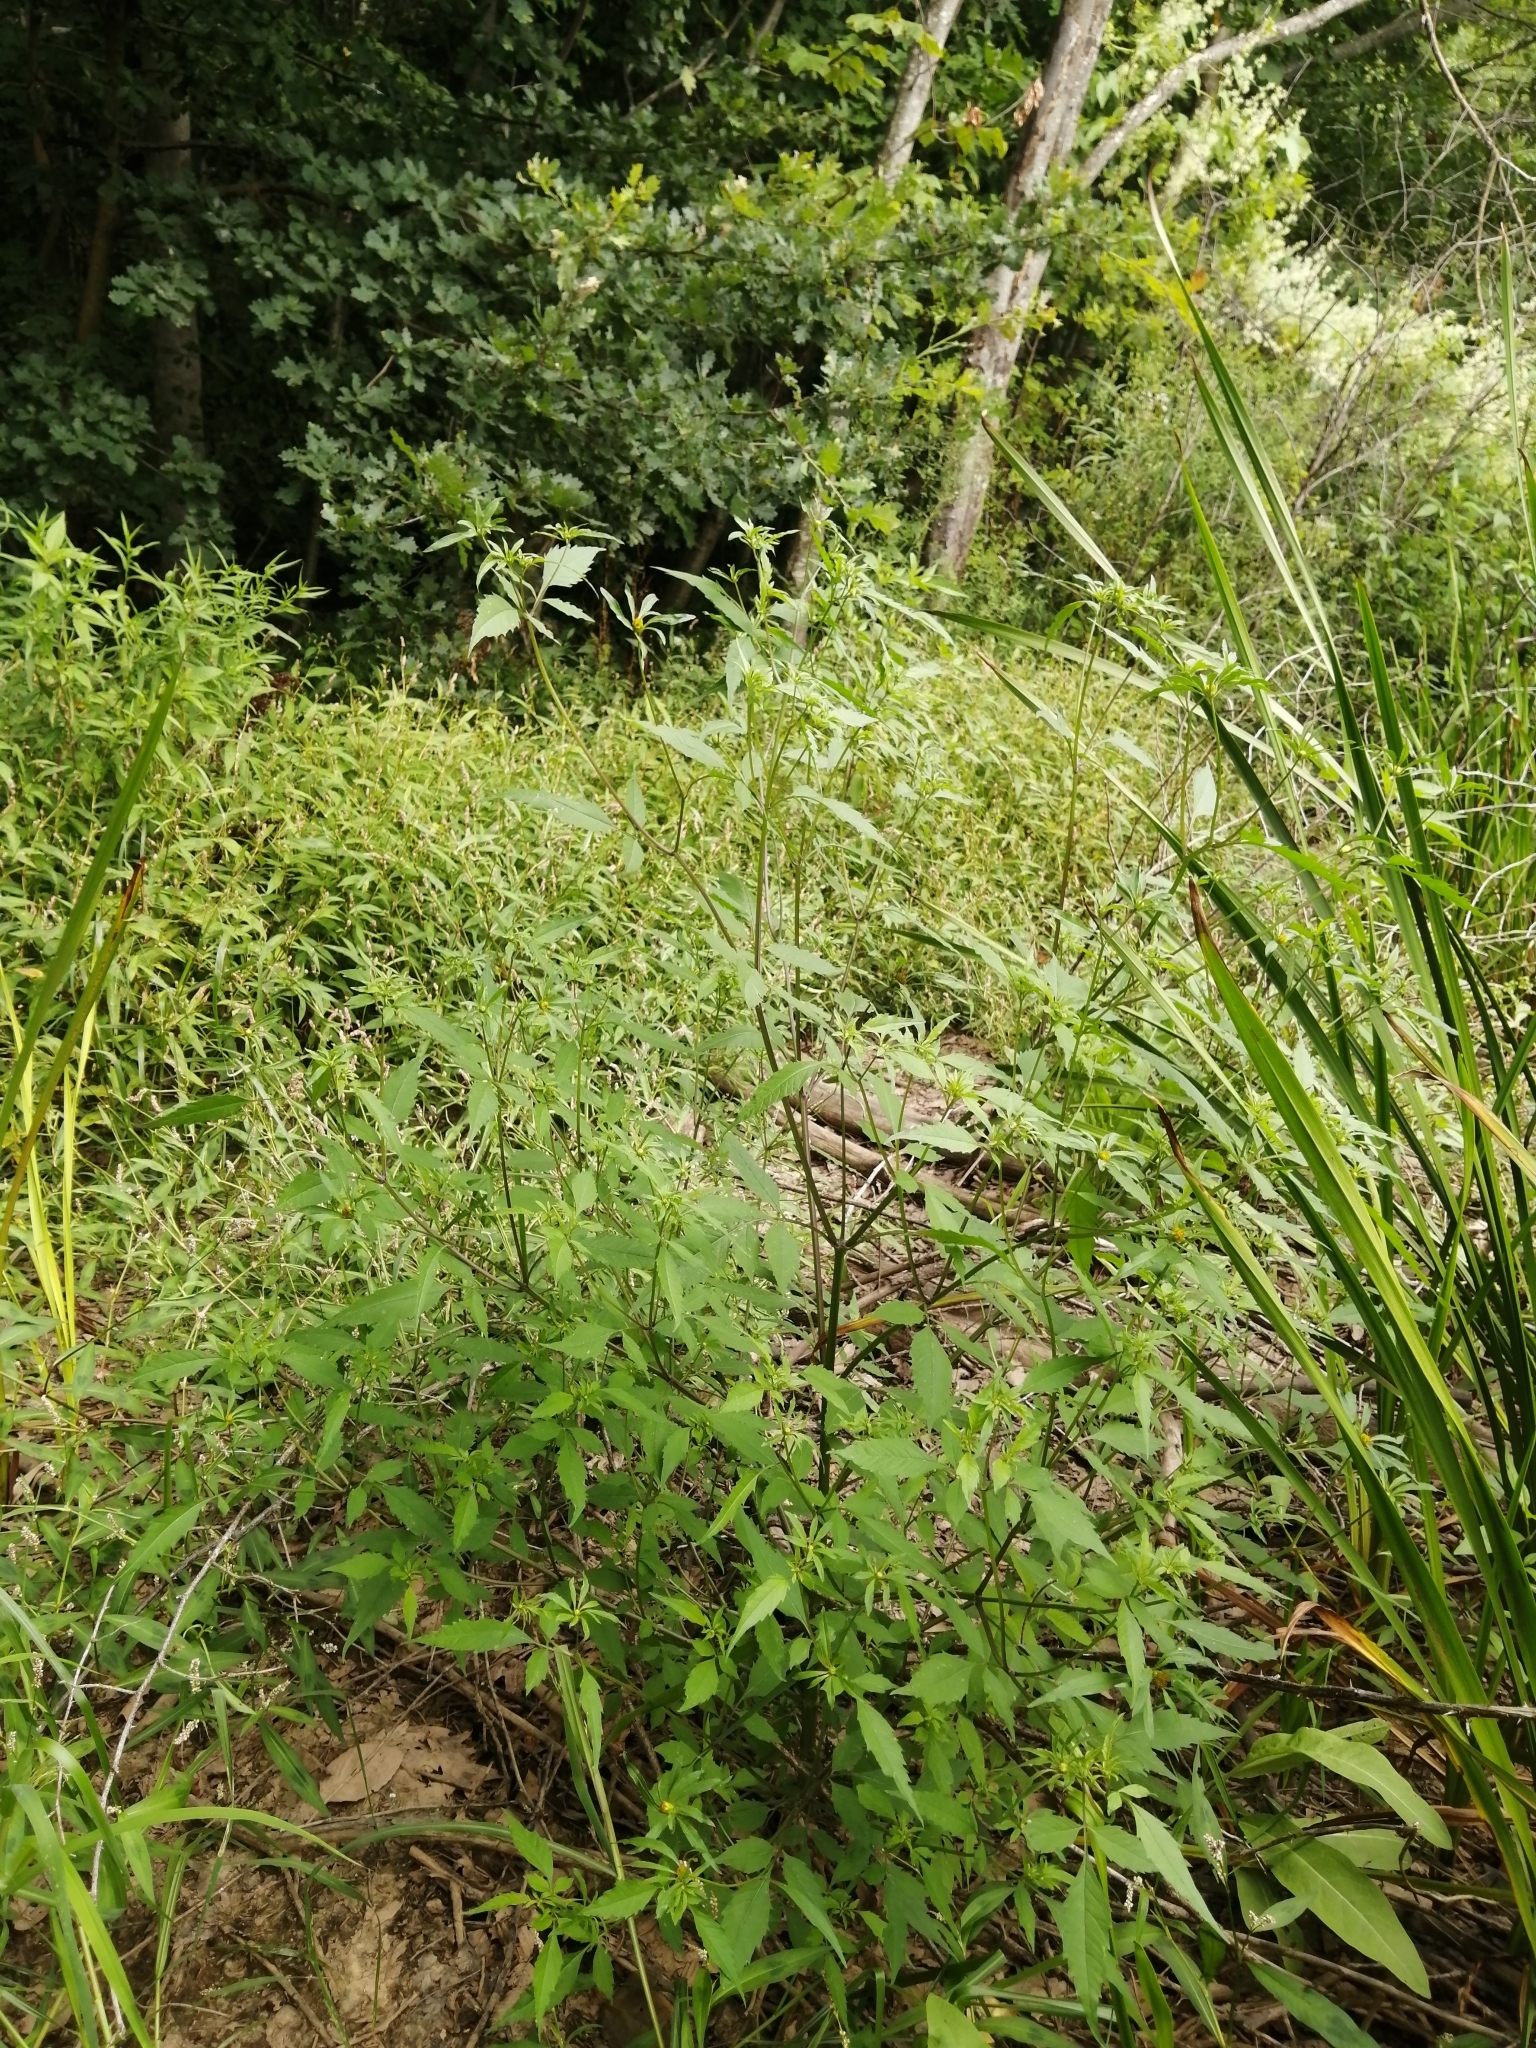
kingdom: Plantae
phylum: Tracheophyta
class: Magnoliopsida
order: Asterales
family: Asteraceae
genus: Bidens
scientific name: Bidens frondosa
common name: Beggarticks
